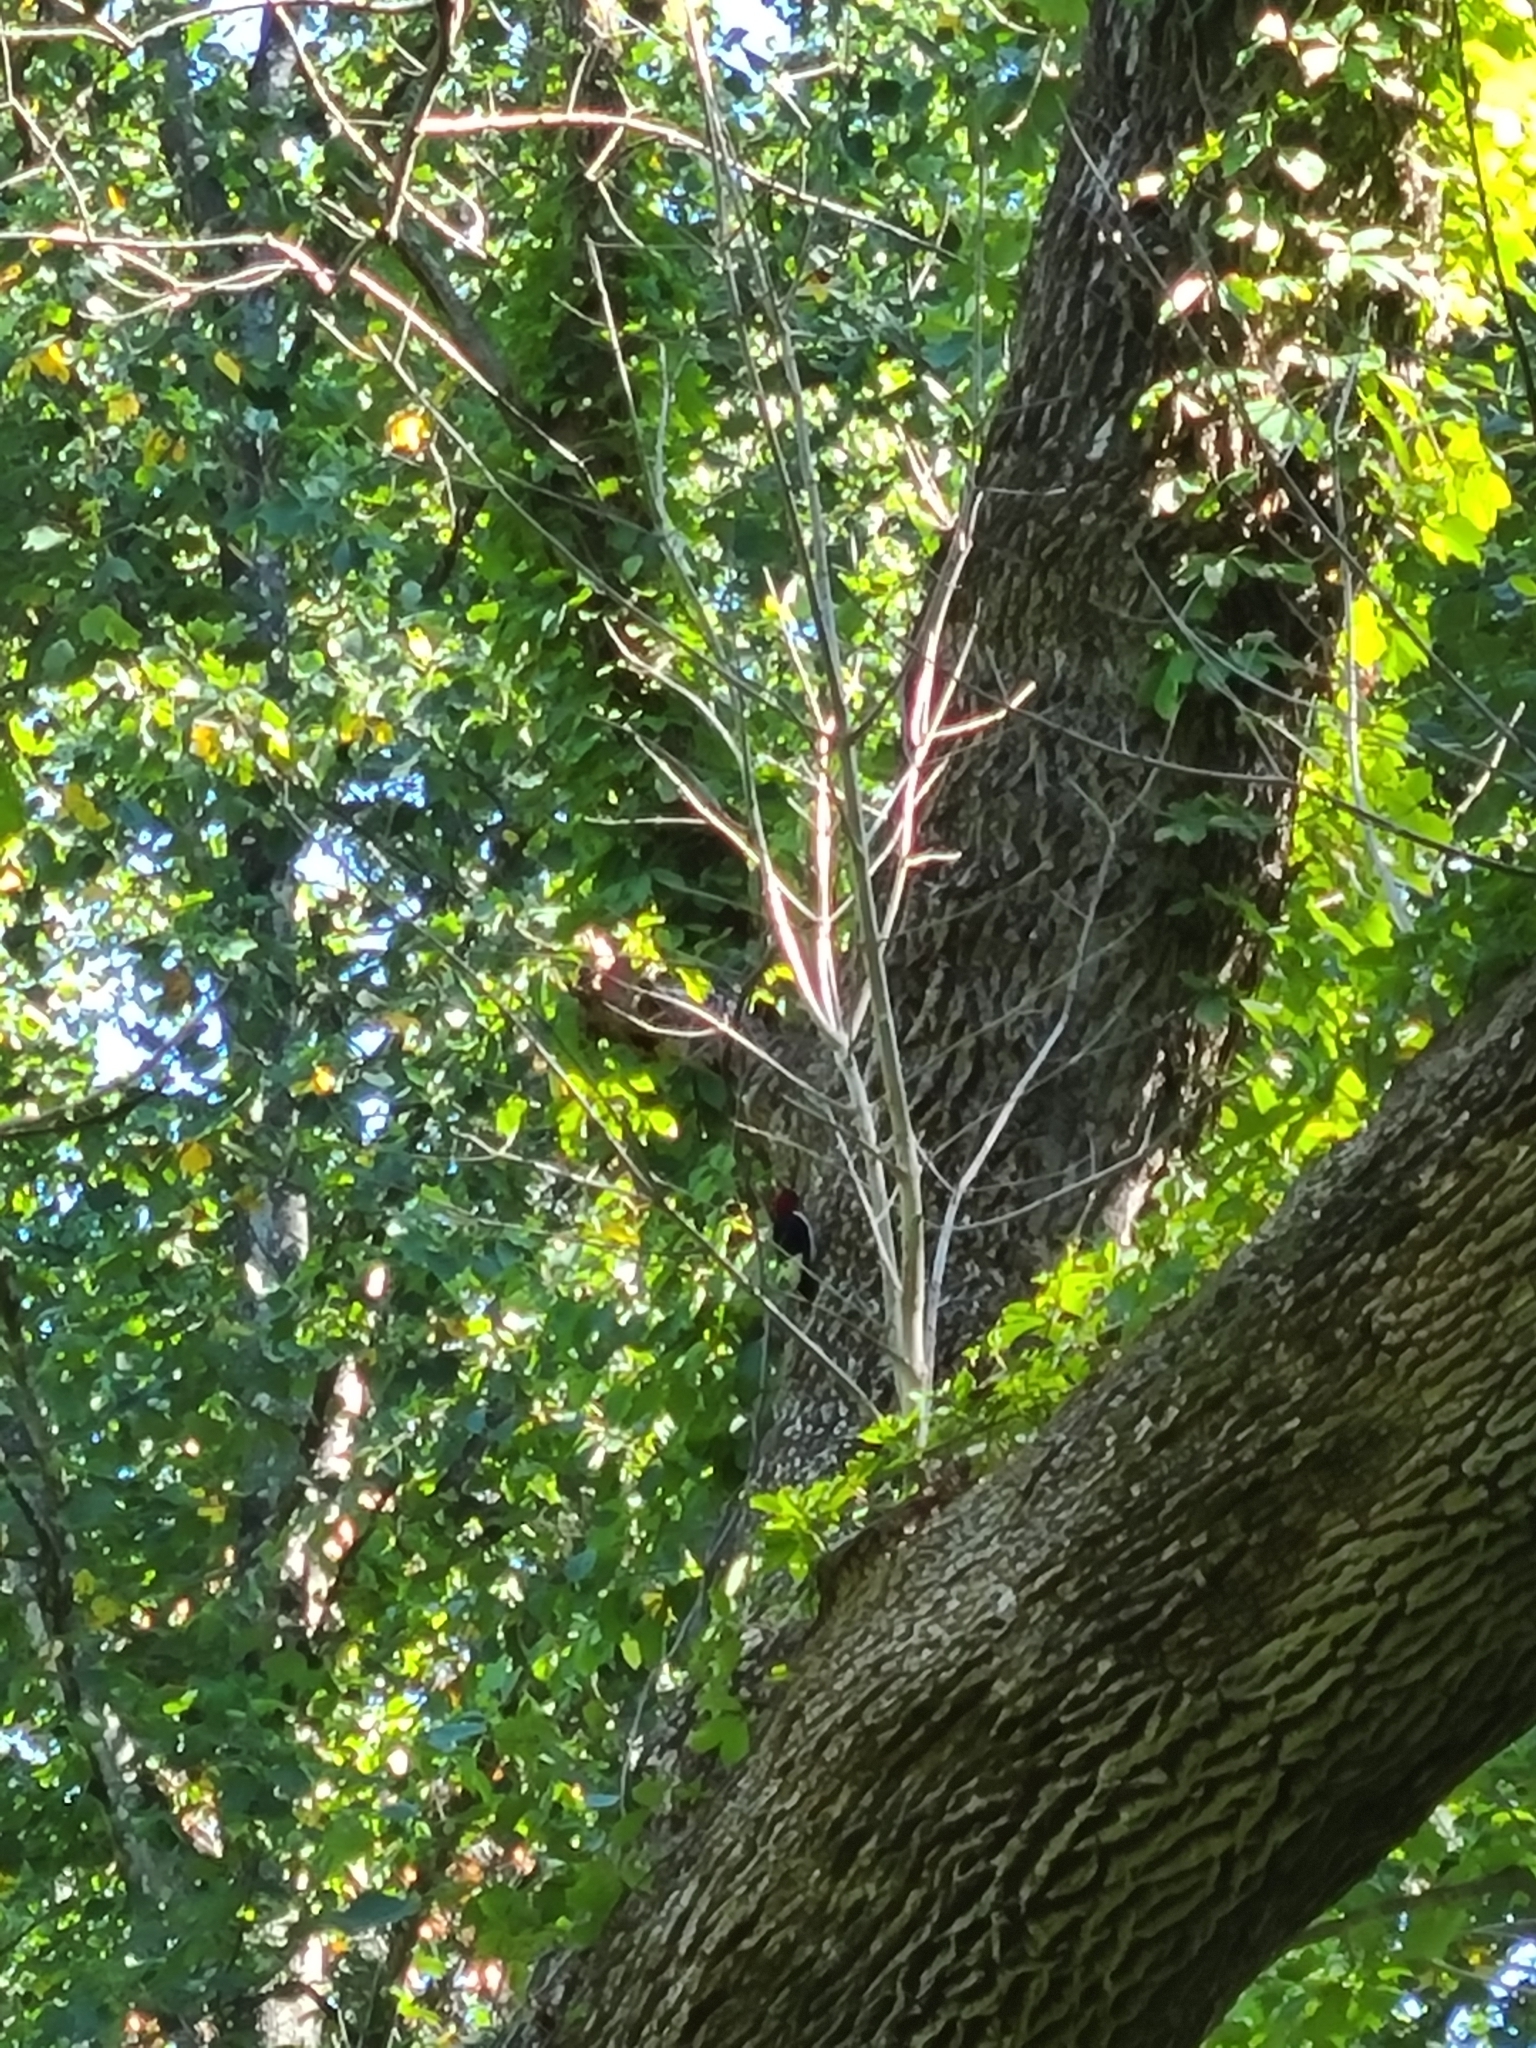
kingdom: Animalia
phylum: Chordata
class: Aves
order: Piciformes
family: Picidae
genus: Melanerpes
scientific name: Melanerpes erythrocephalus
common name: Red-headed woodpecker
